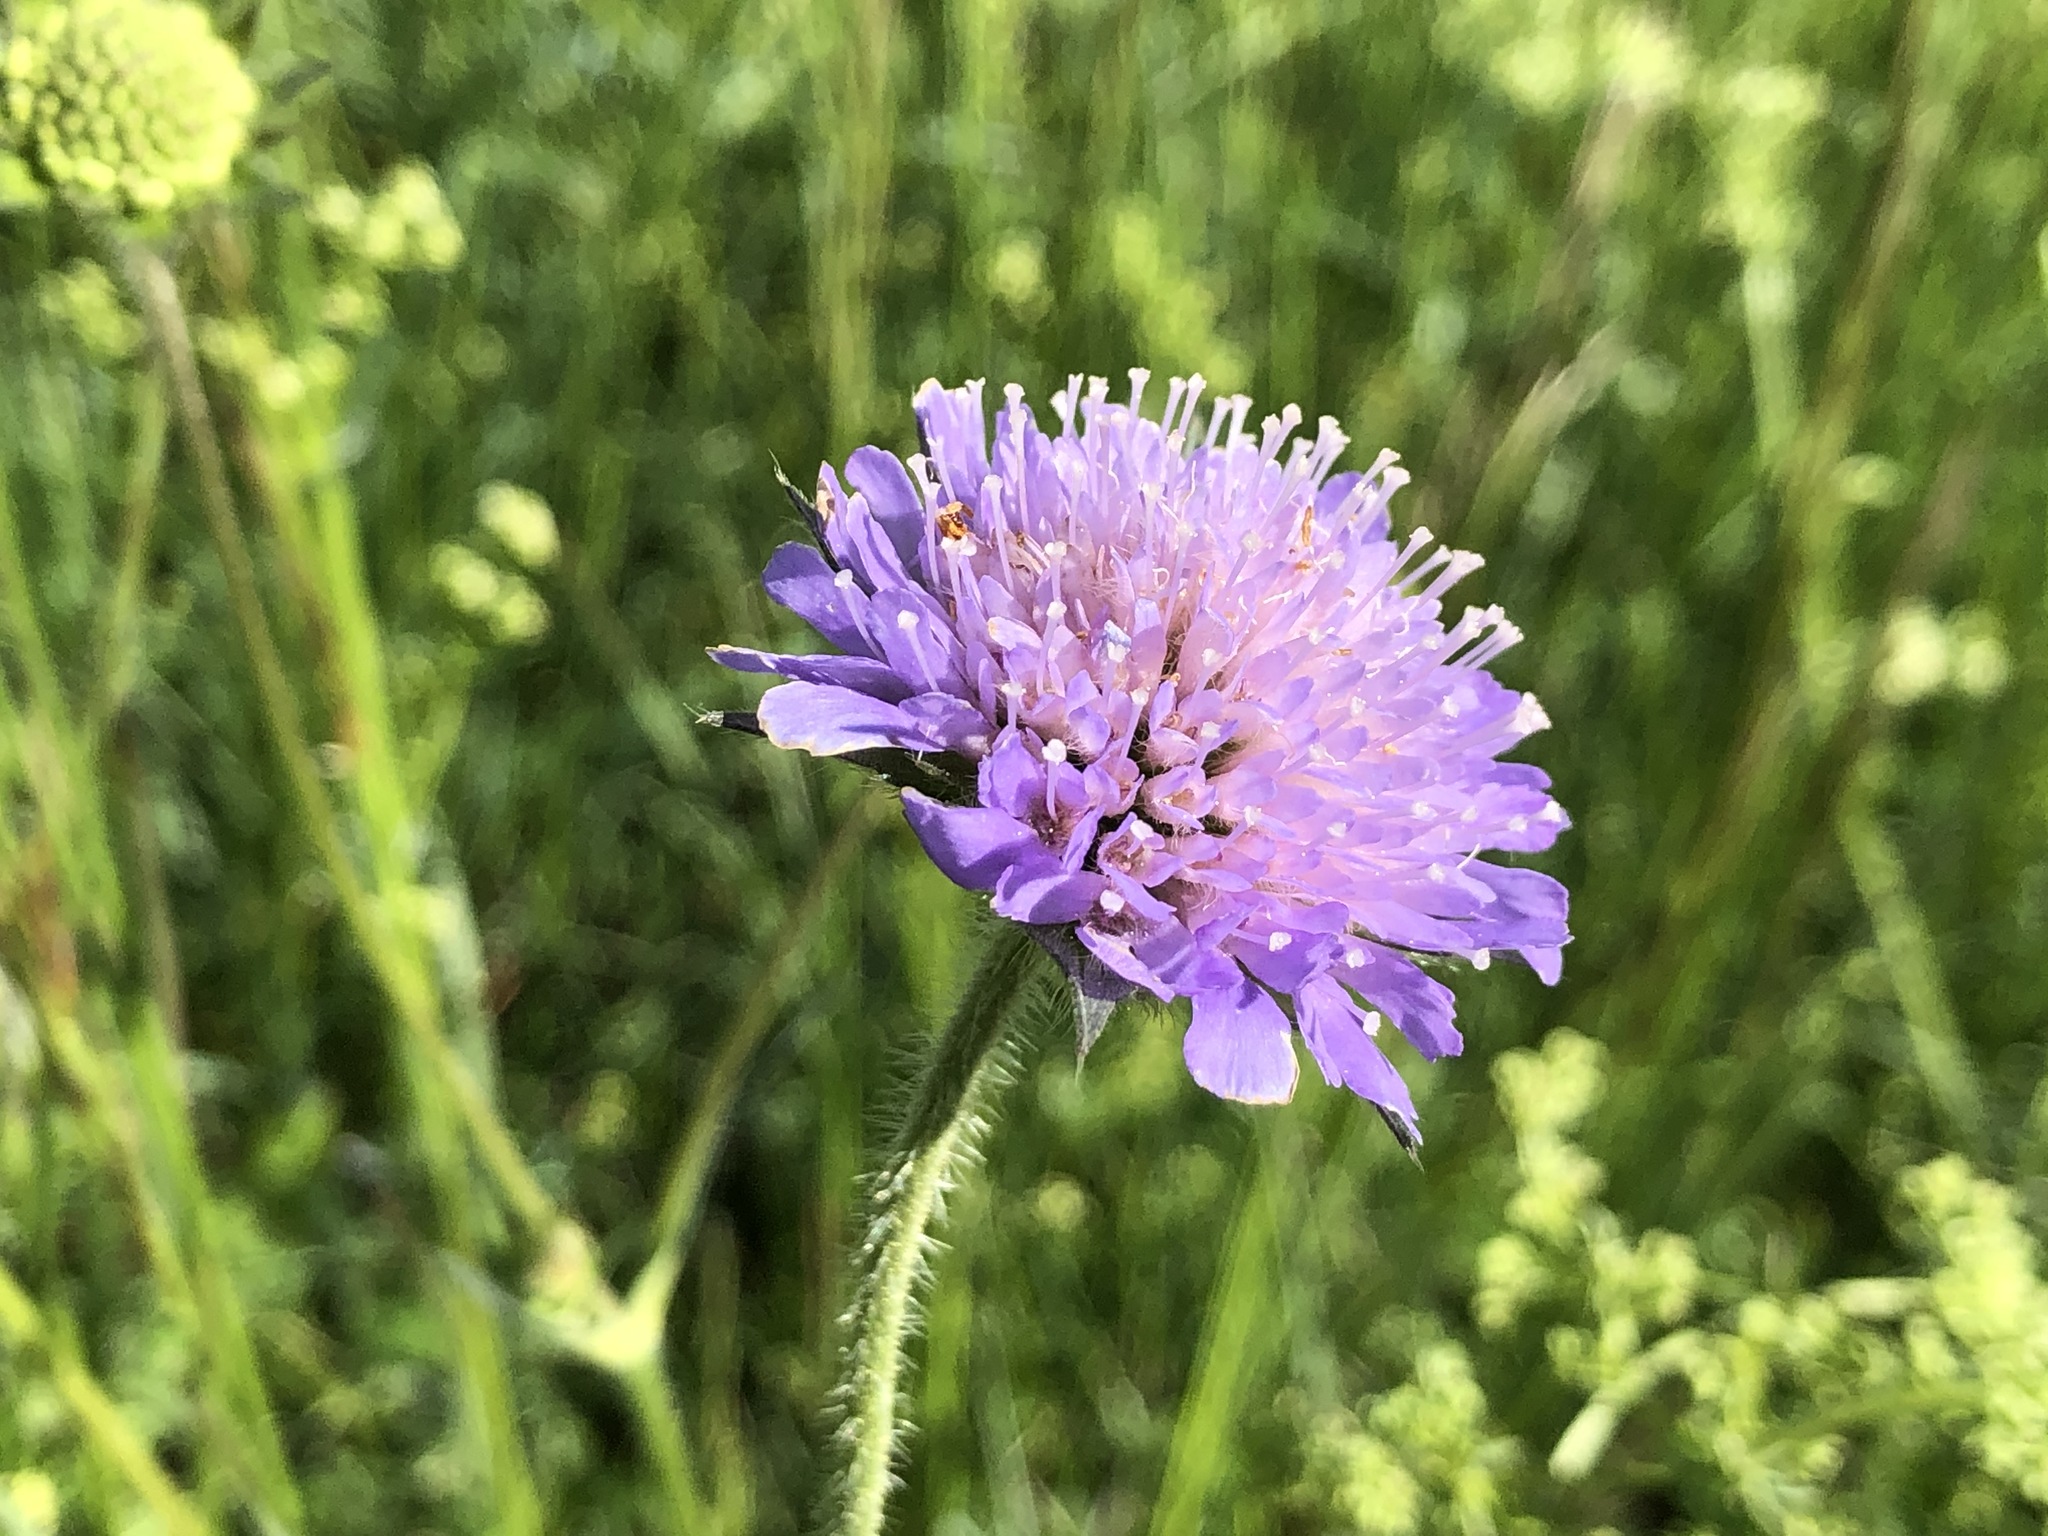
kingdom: Plantae
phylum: Tracheophyta
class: Magnoliopsida
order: Dipsacales
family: Caprifoliaceae
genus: Knautia
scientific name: Knautia arvensis
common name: Field scabiosa
